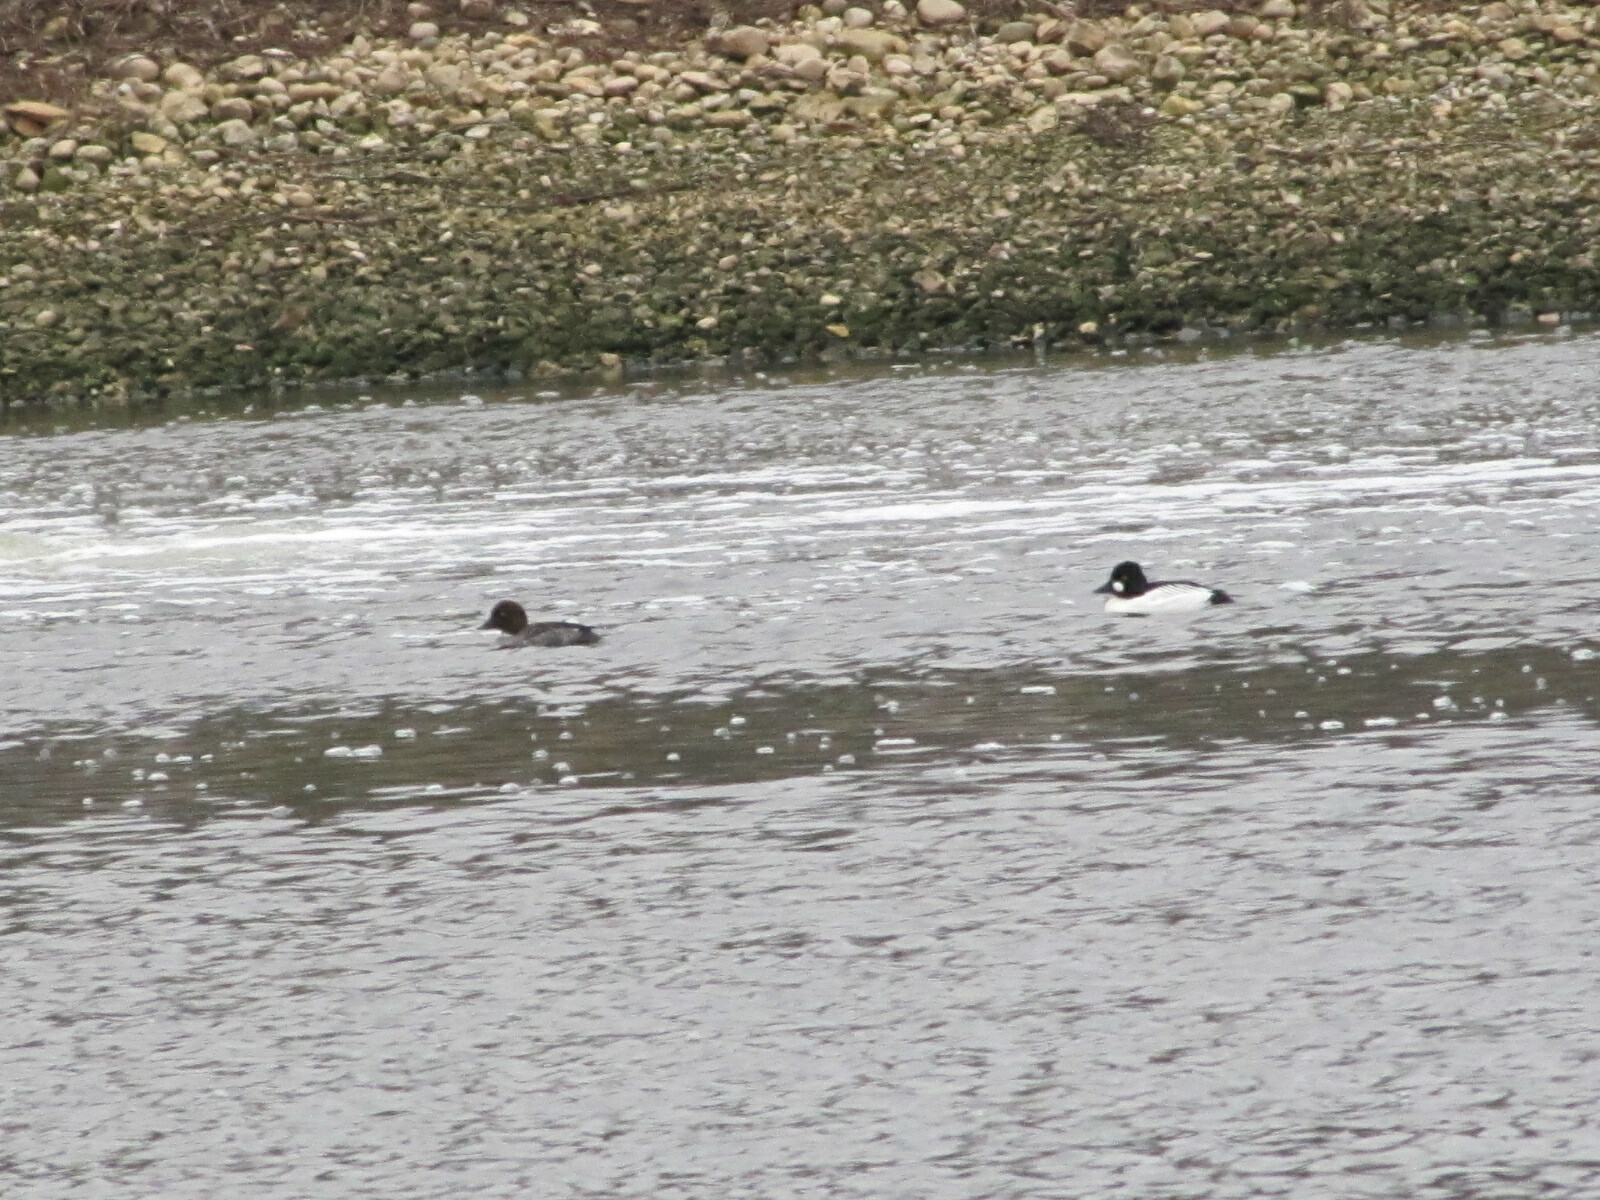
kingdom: Animalia
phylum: Chordata
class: Aves
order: Anseriformes
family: Anatidae
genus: Bucephala
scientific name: Bucephala clangula
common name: Common goldeneye
